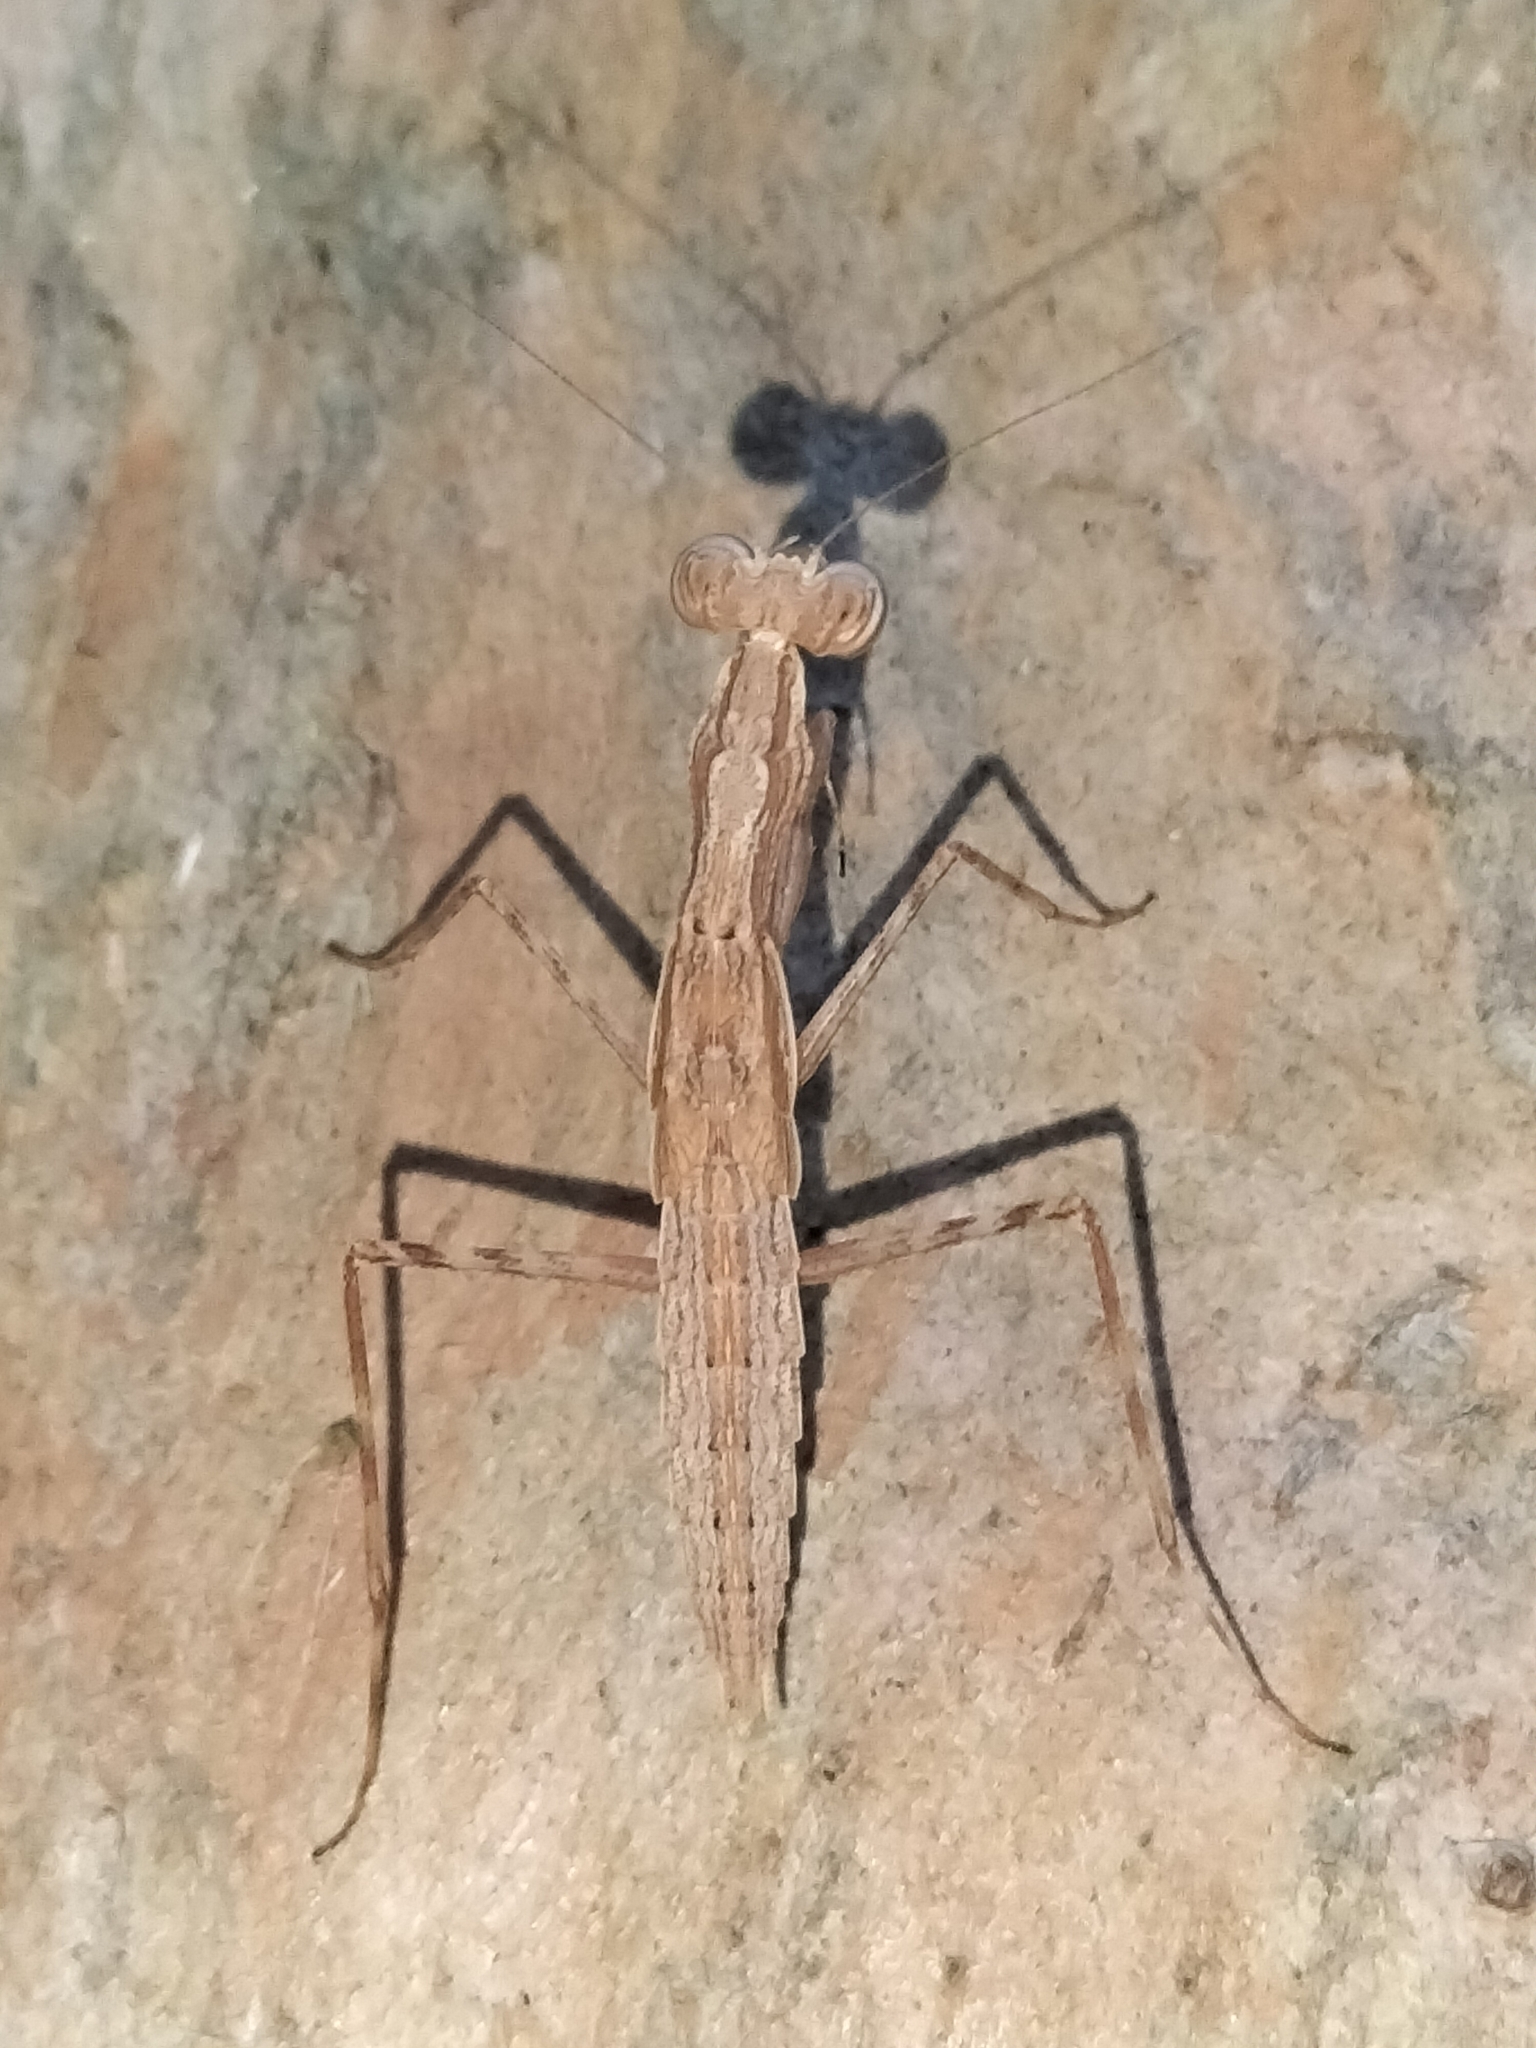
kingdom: Animalia
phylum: Arthropoda
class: Insecta
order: Mantodea
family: Nanomantidae
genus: Ima
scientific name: Ima fusca
